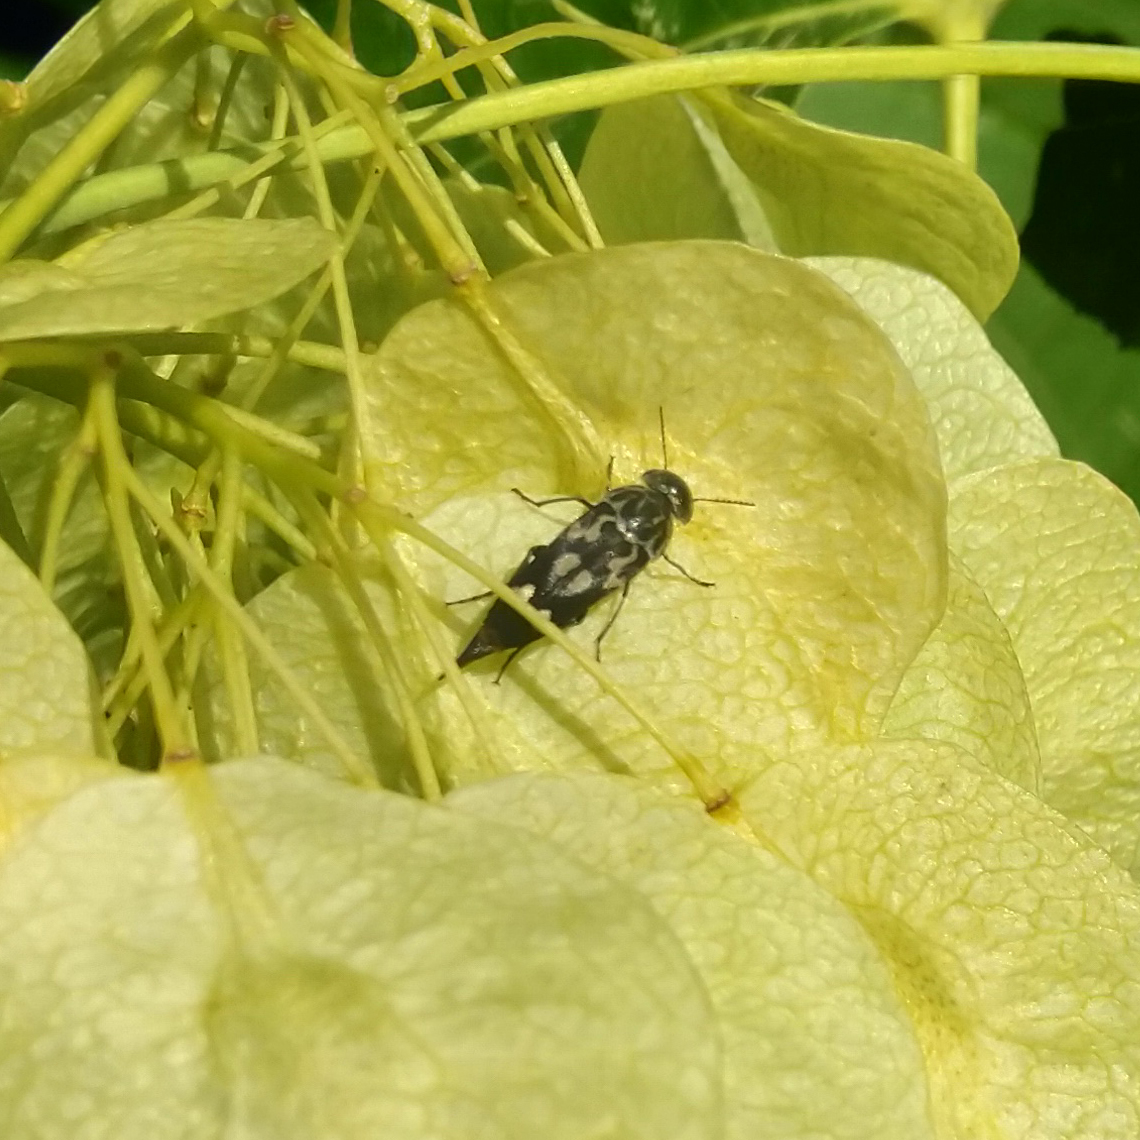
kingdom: Animalia
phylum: Arthropoda
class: Insecta
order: Coleoptera
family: Mordellidae
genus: Hoshihananomia
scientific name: Hoshihananomia octopunctata
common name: Eight-spotted tumbling flower beetle
